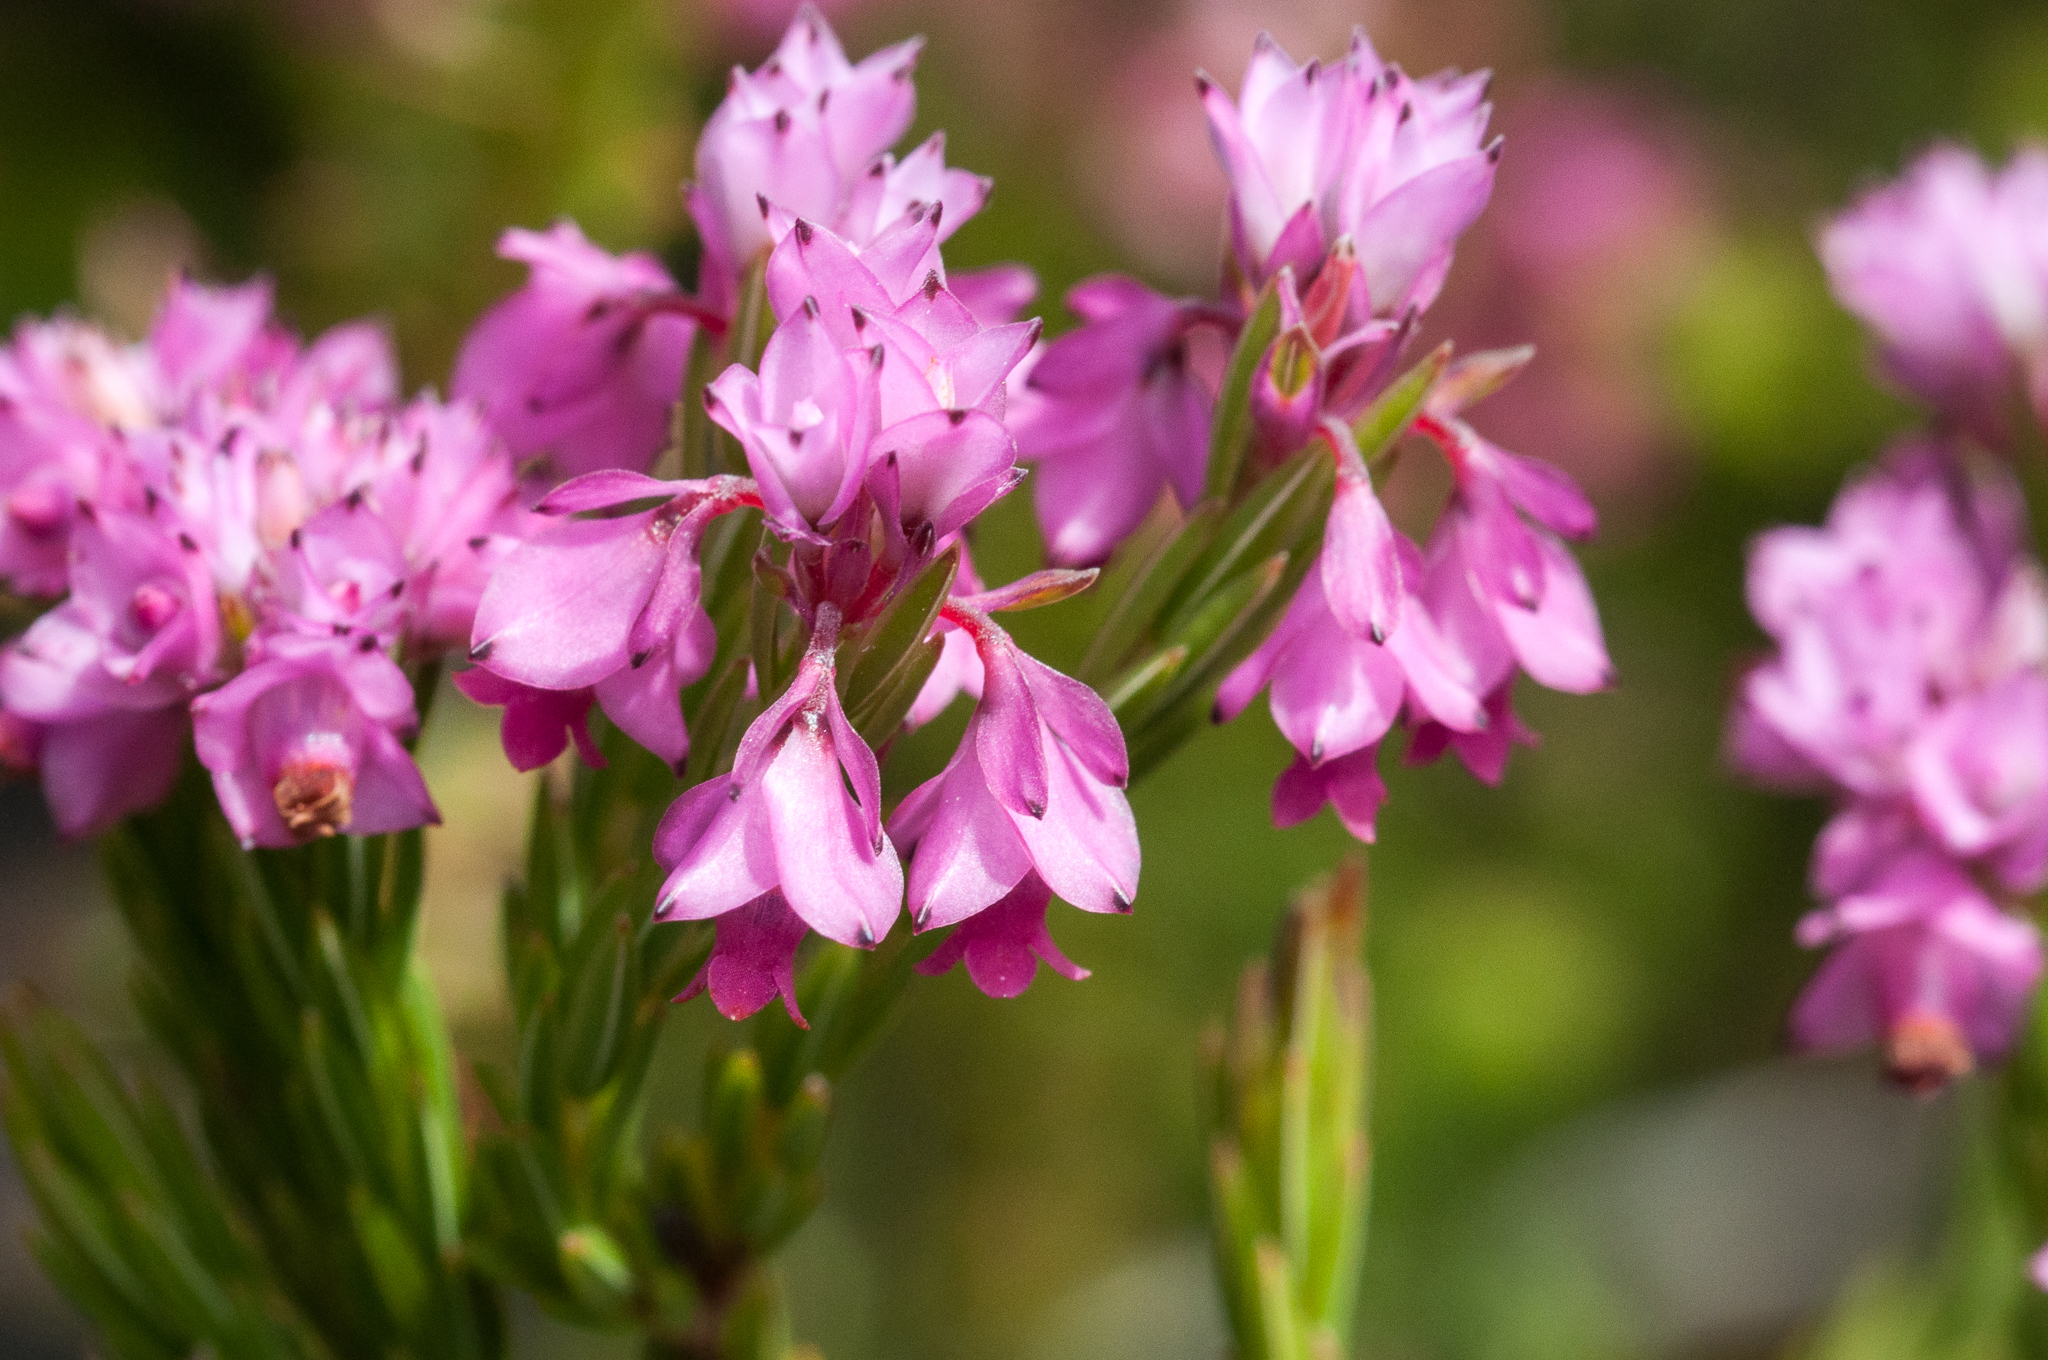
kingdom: Plantae
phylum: Tracheophyta
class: Magnoliopsida
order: Ericales
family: Ericaceae
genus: Erica
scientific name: Erica corifolia
